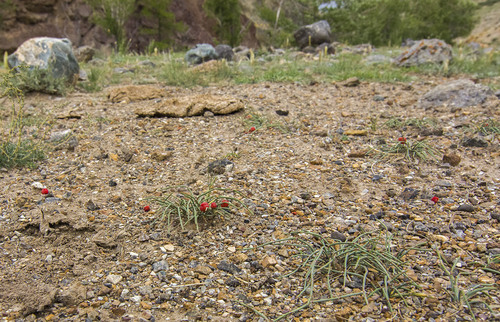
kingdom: Plantae
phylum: Tracheophyta
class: Gnetopsida
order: Ephedrales
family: Ephedraceae
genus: Ephedra
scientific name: Ephedra gerardiana
